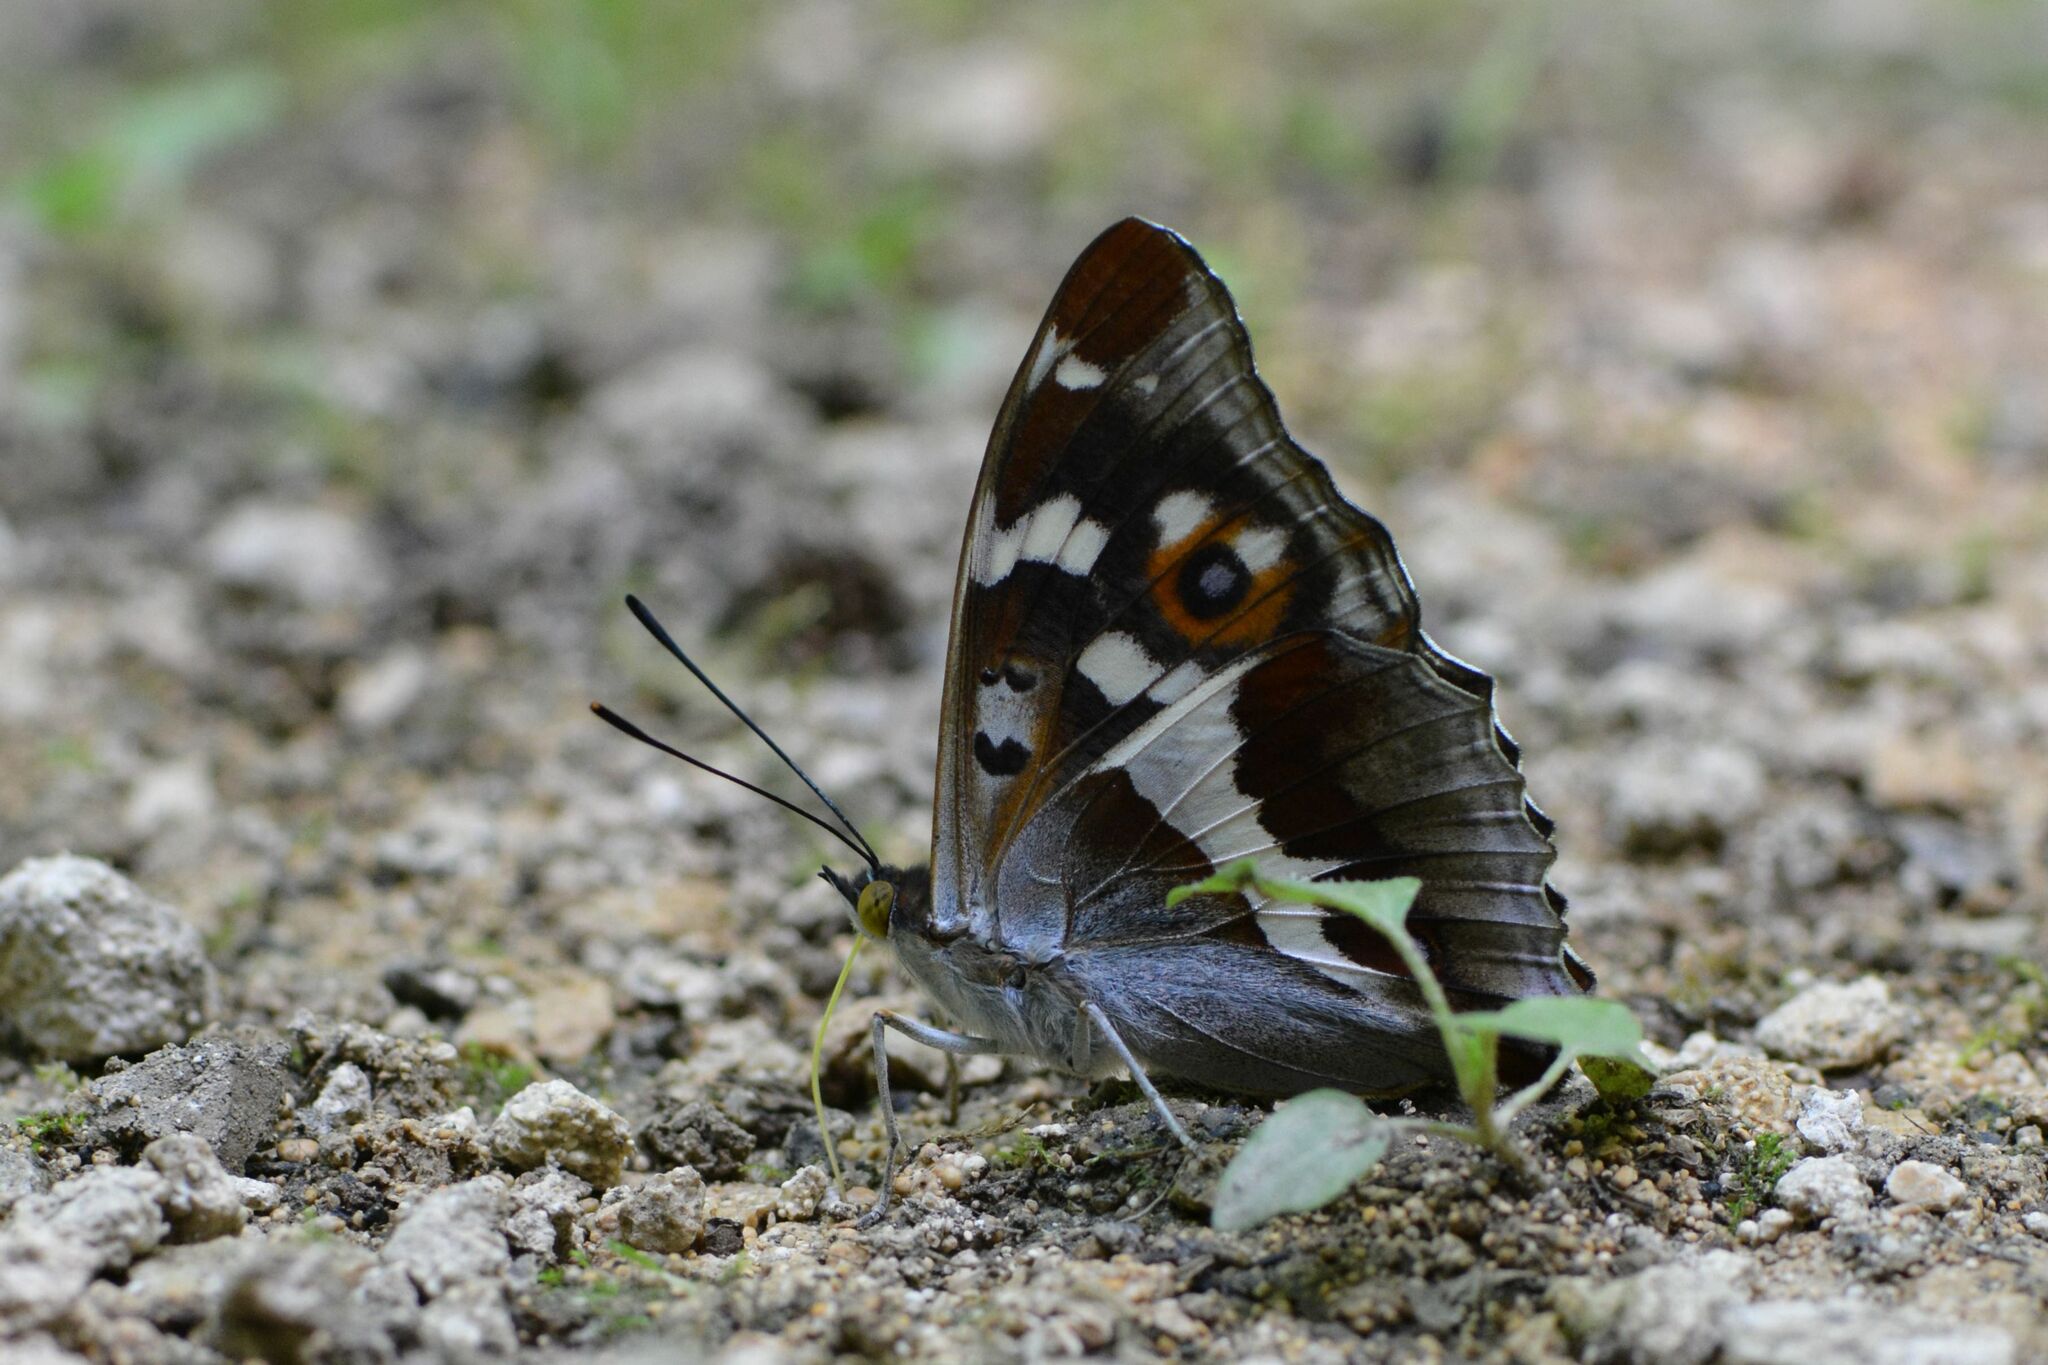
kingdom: Animalia
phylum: Arthropoda
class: Insecta
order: Lepidoptera
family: Nymphalidae
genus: Apatura
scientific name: Apatura iris
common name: Purple emperor
